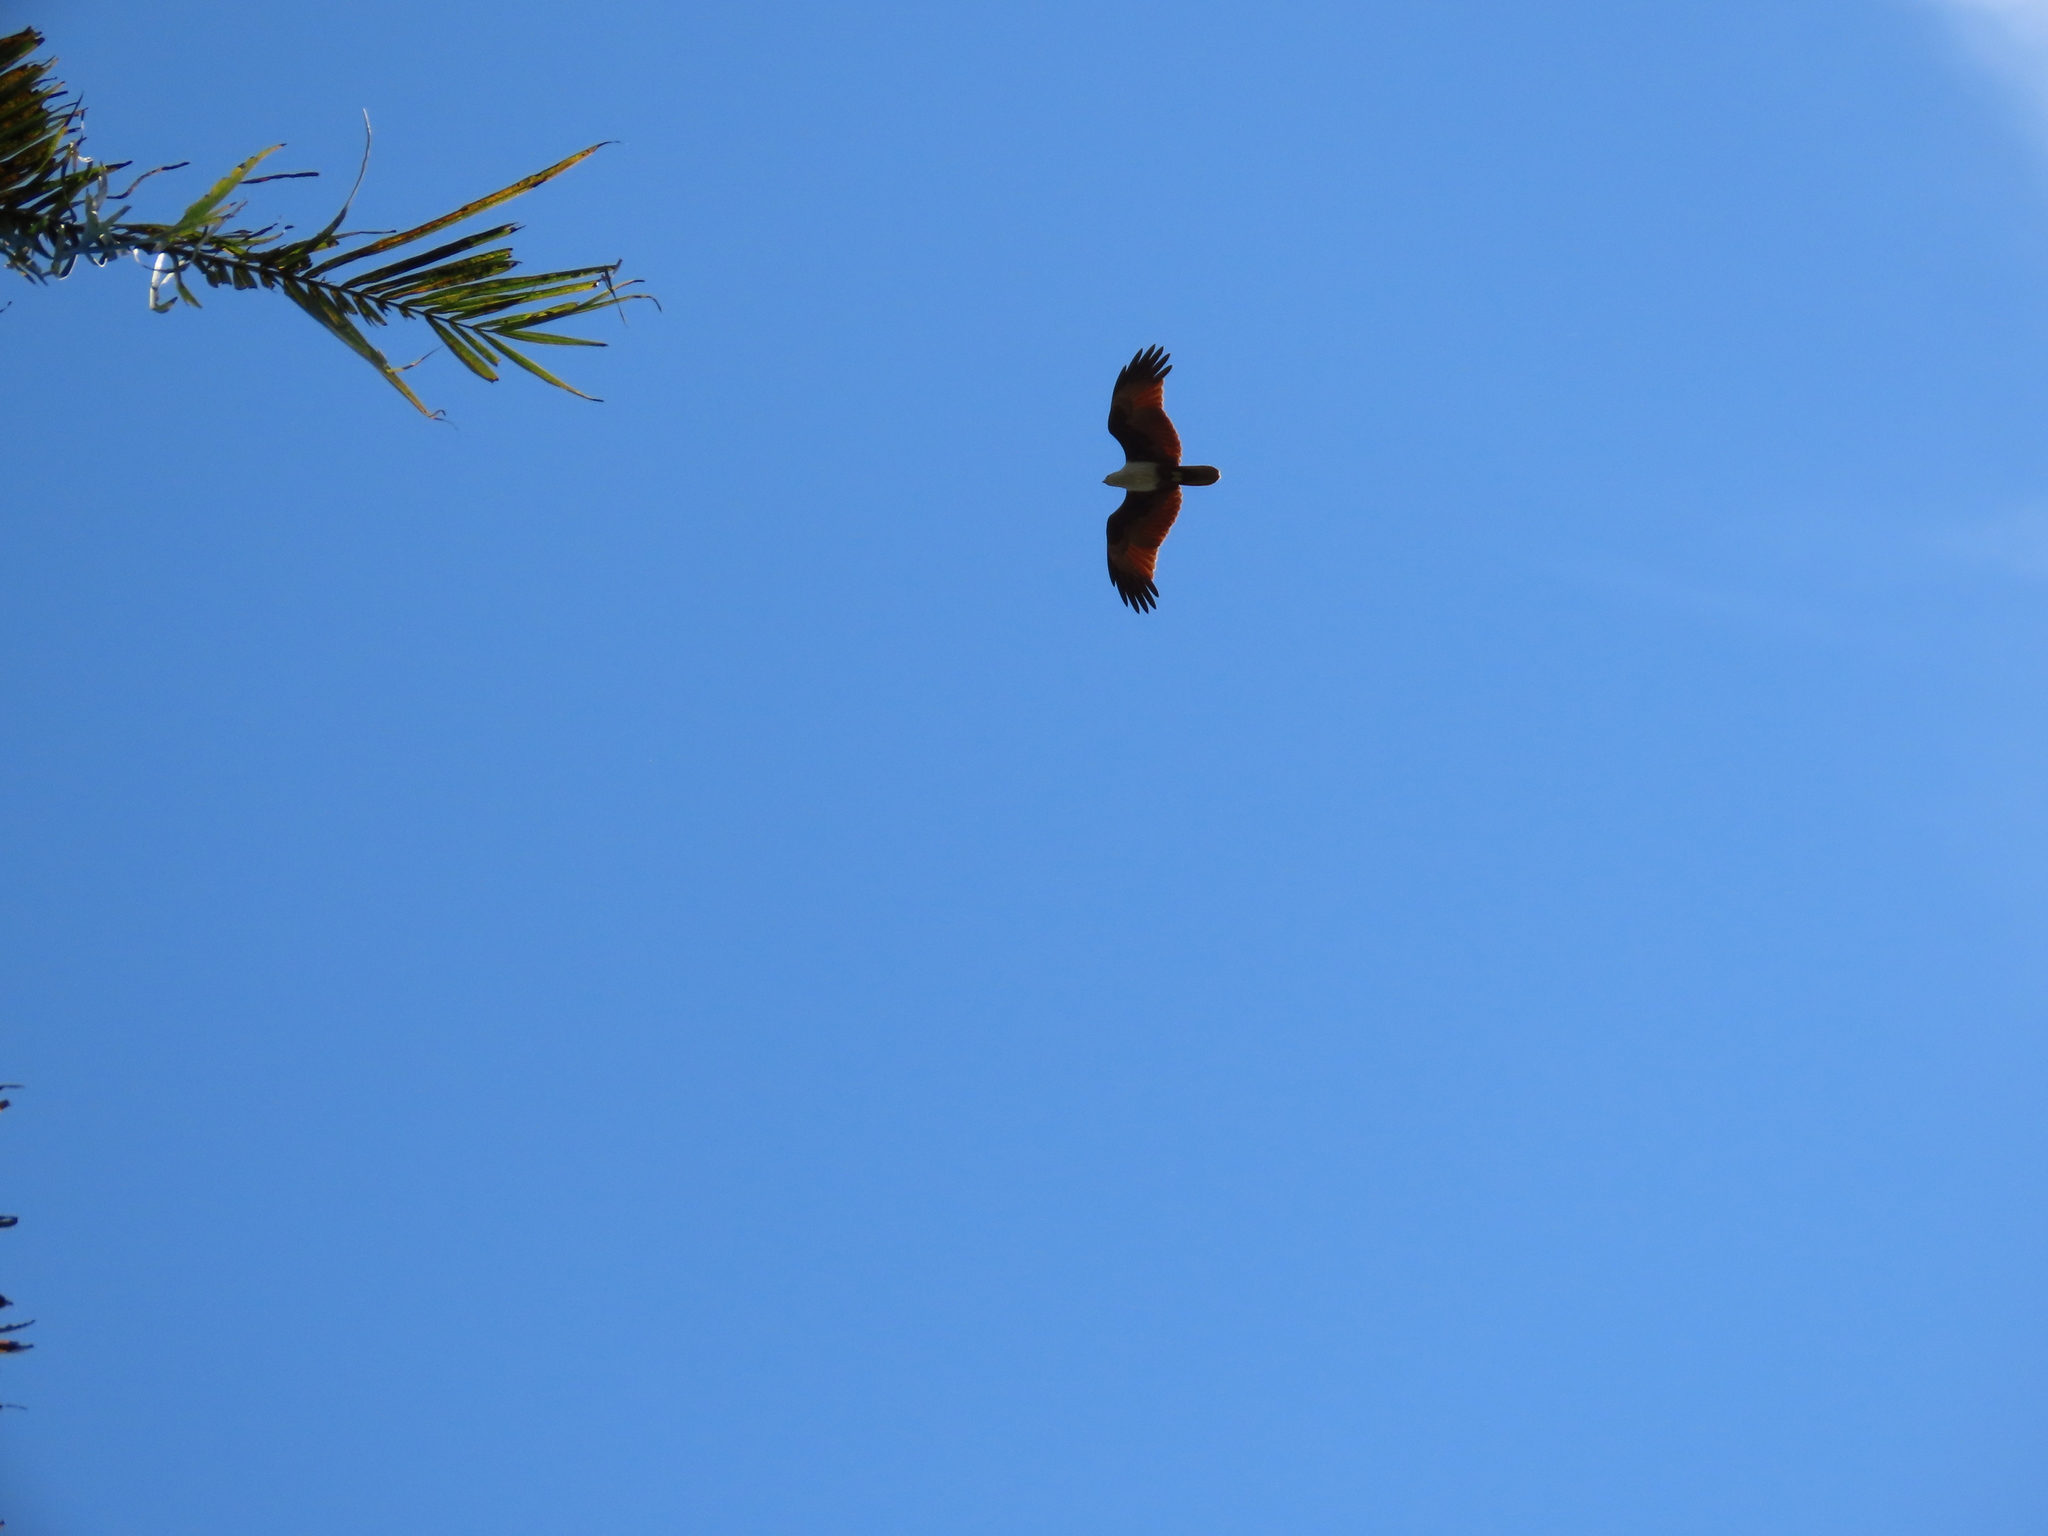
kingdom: Animalia
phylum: Chordata
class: Aves
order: Accipitriformes
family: Accipitridae
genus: Haliastur
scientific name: Haliastur indus
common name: Brahminy kite
